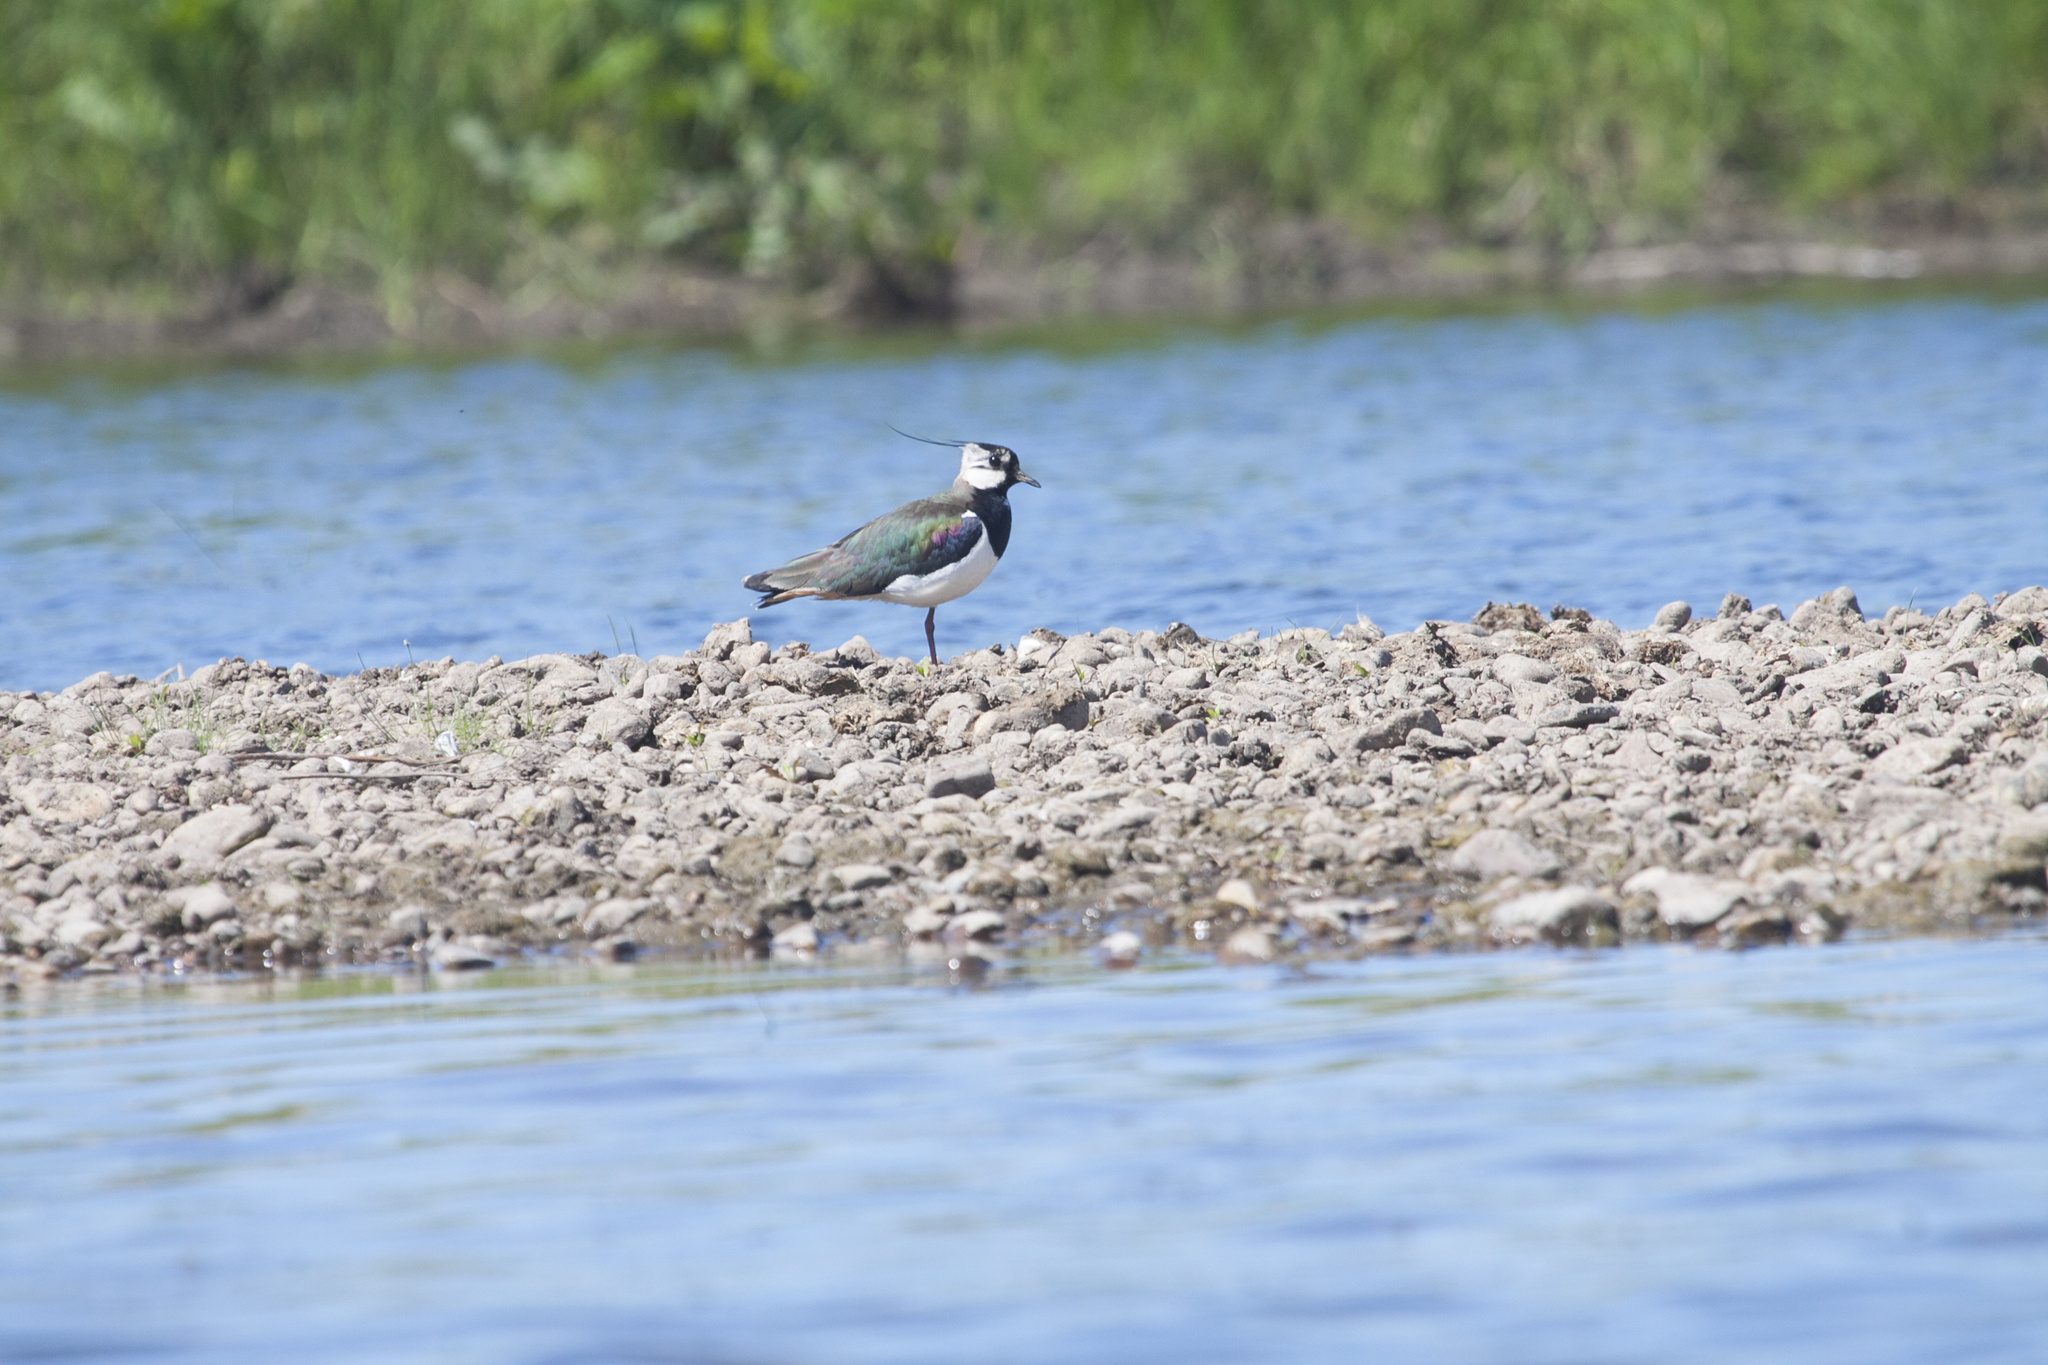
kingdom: Animalia
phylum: Chordata
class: Aves
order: Charadriiformes
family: Charadriidae
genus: Vanellus
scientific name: Vanellus vanellus
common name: Northern lapwing
